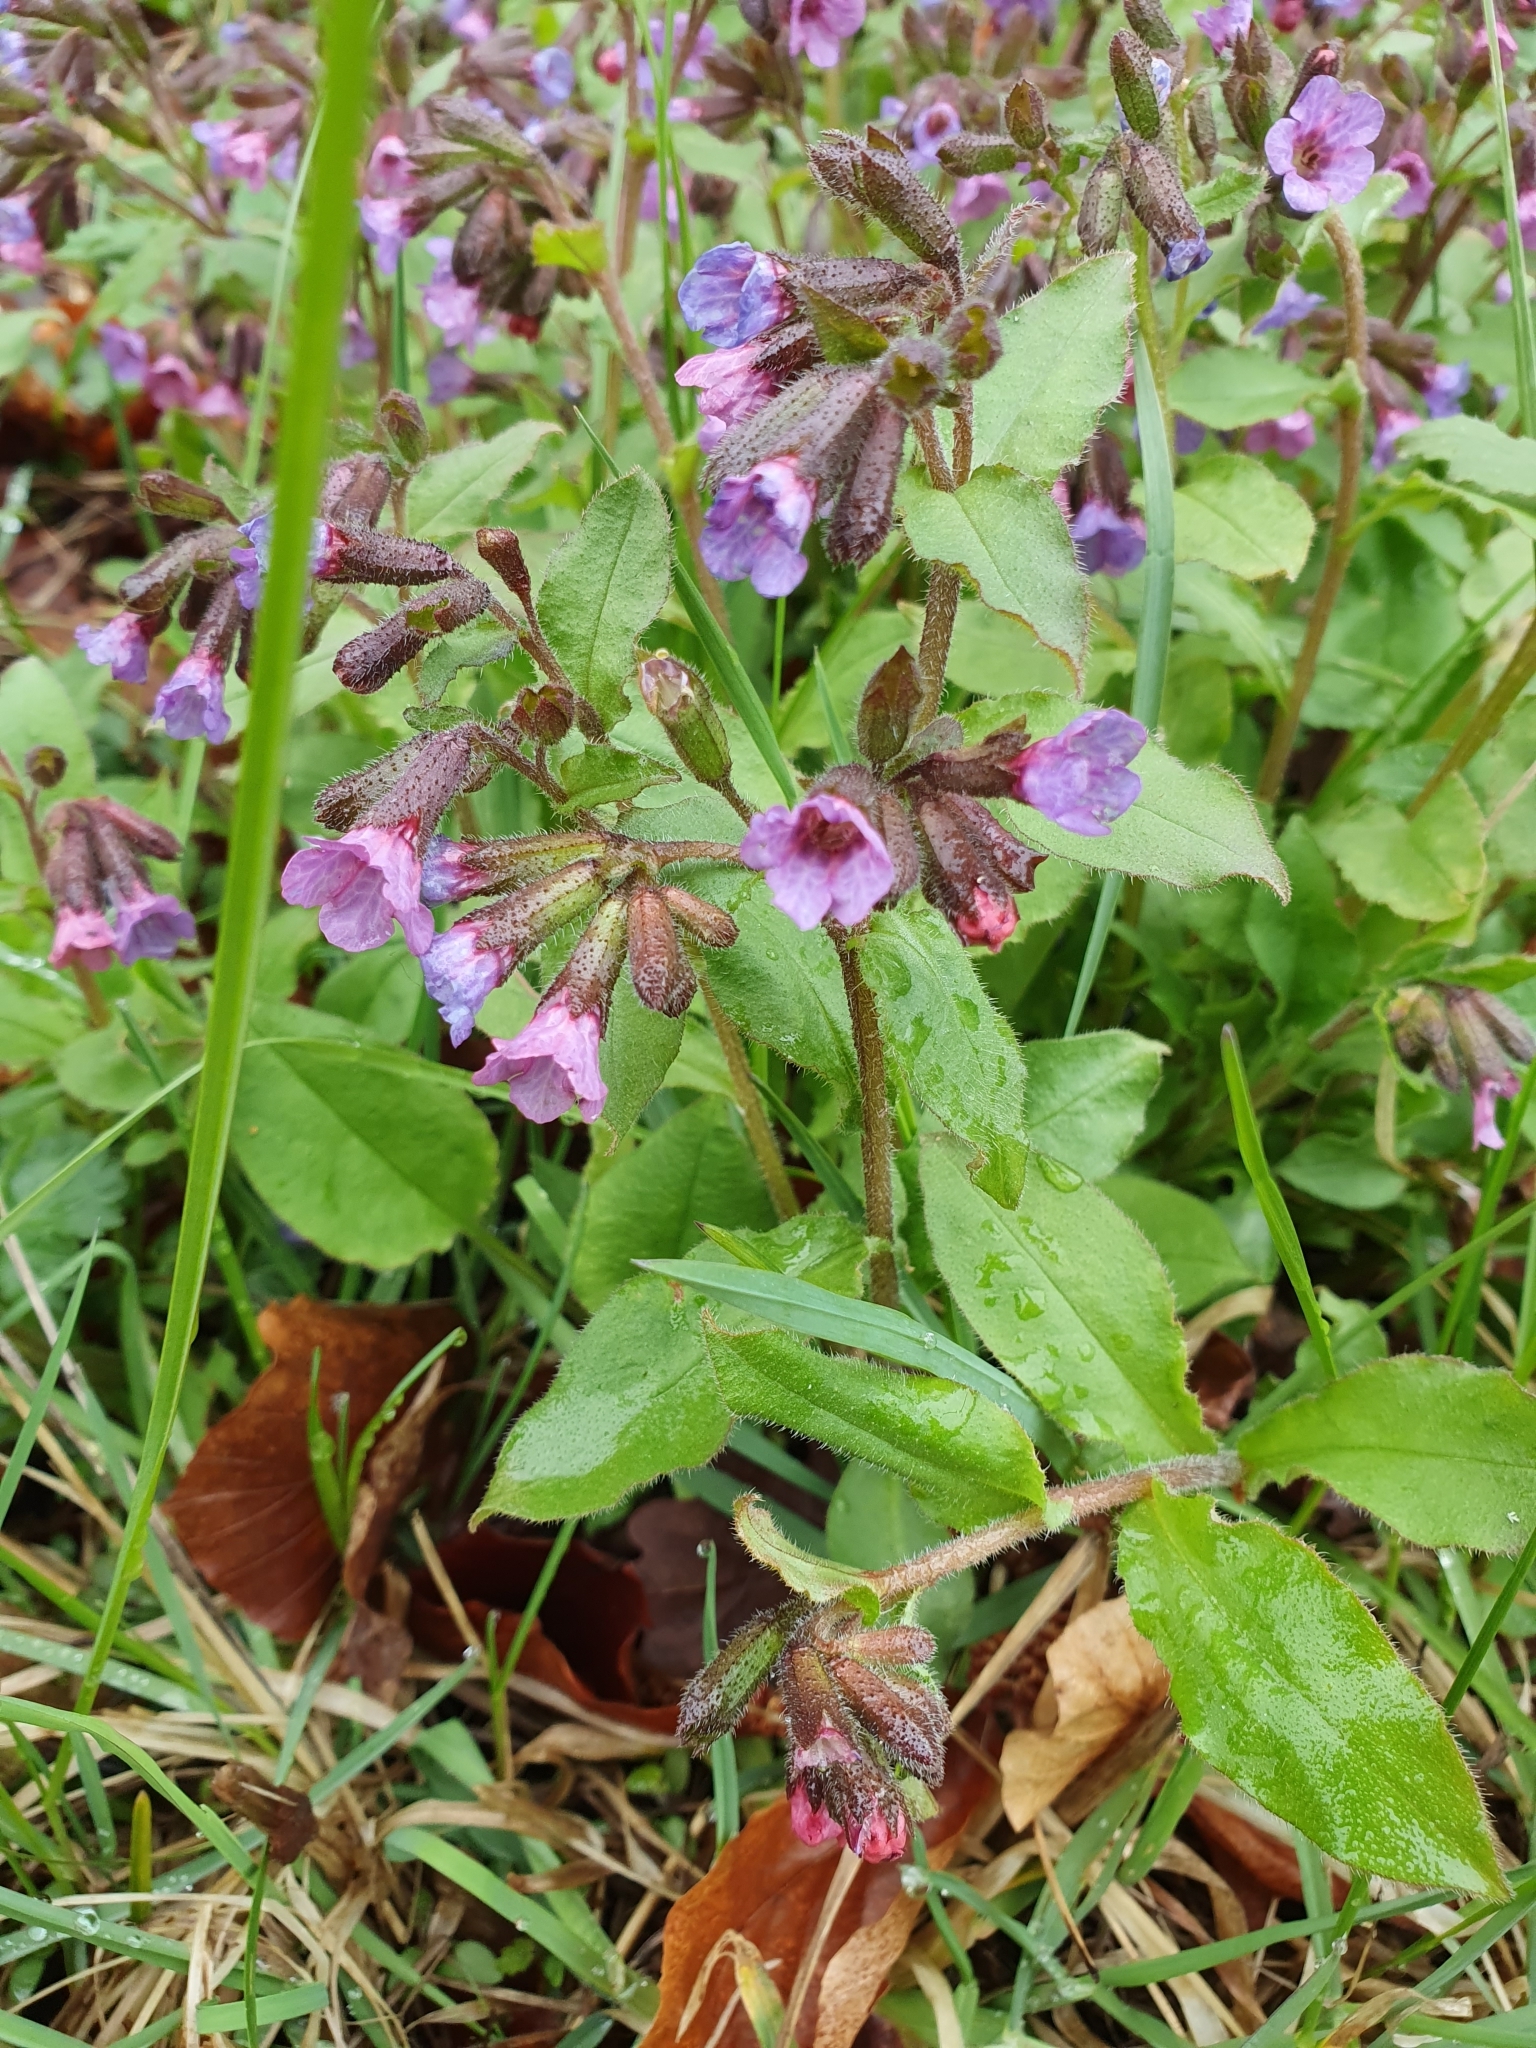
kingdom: Plantae
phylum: Tracheophyta
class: Magnoliopsida
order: Boraginales
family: Boraginaceae
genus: Pulmonaria
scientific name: Pulmonaria obscura
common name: Suffolk lungwort
